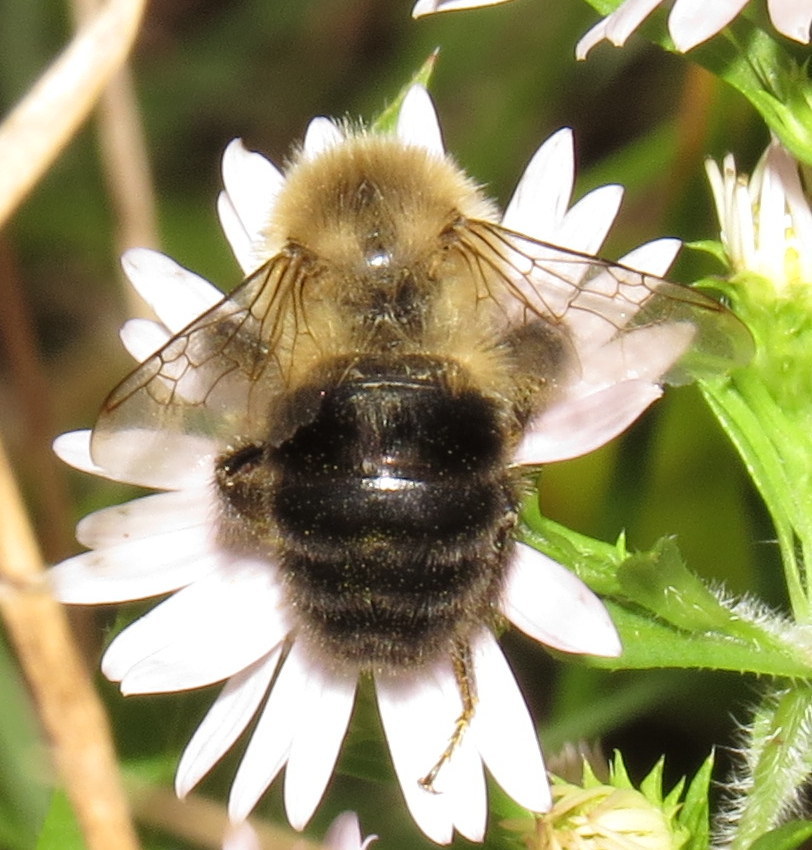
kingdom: Animalia
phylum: Arthropoda
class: Insecta
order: Hymenoptera
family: Apidae
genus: Bombus
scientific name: Bombus impatiens
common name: Common eastern bumble bee
